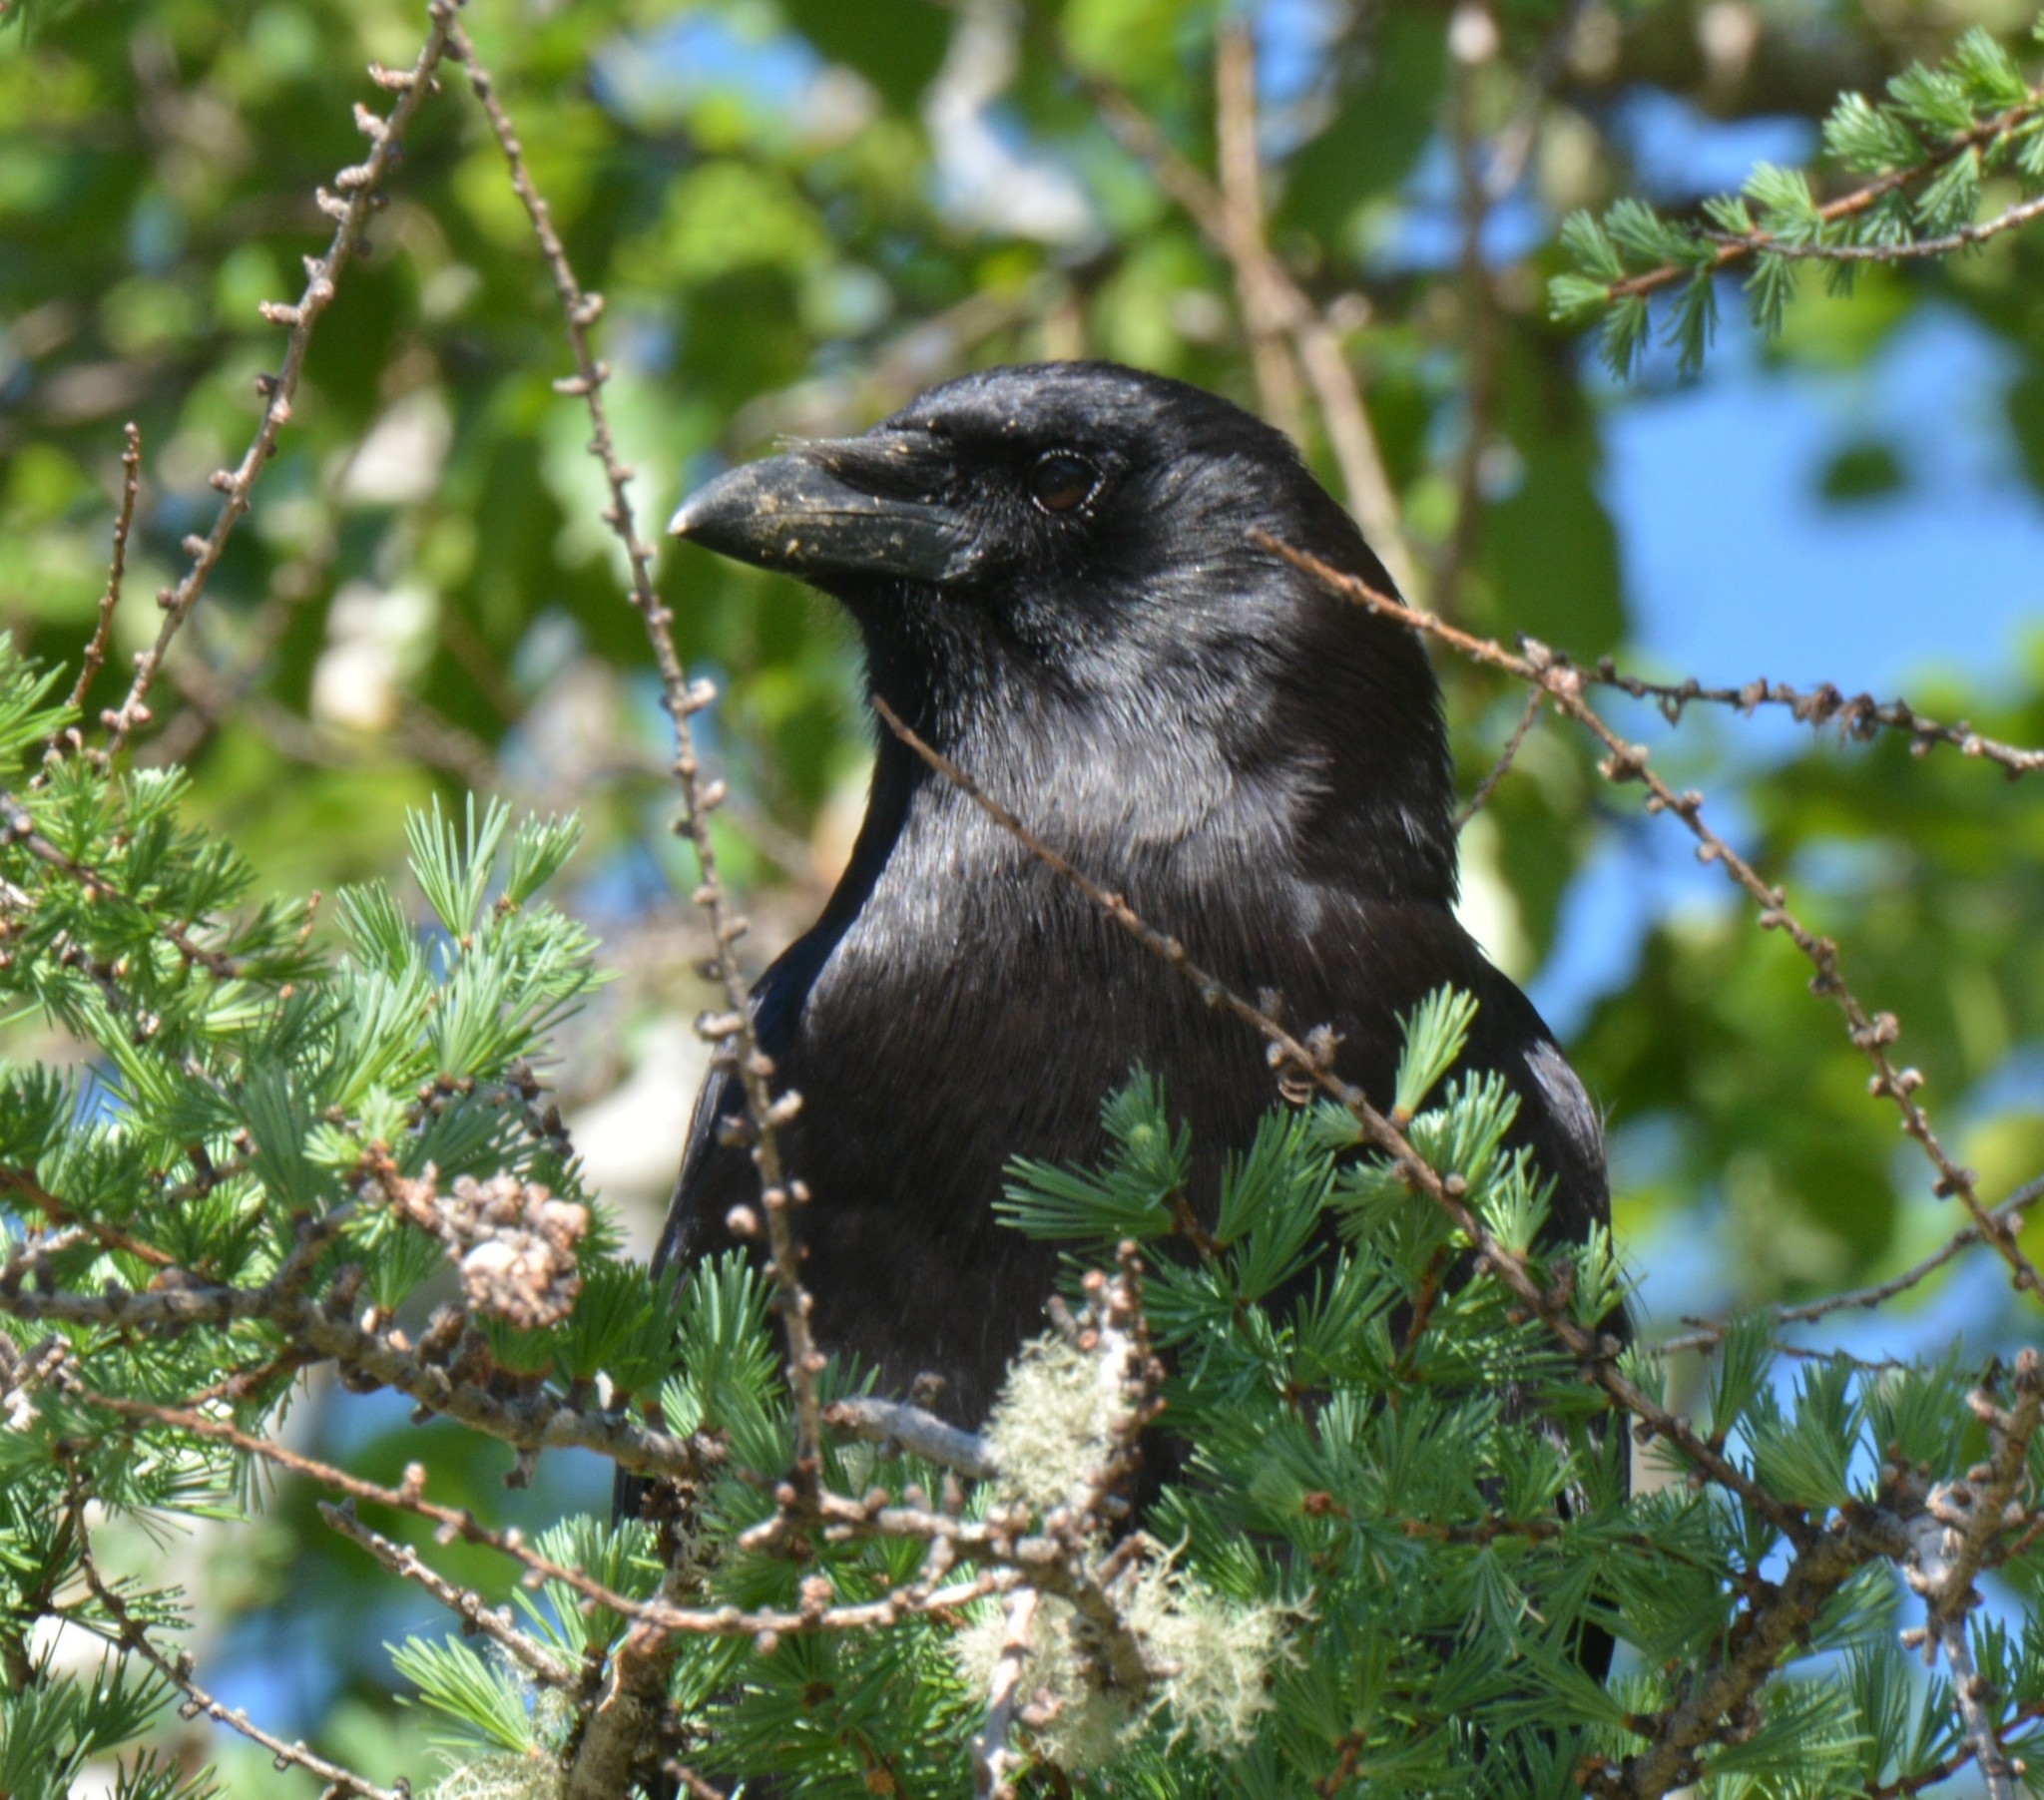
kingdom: Animalia
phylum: Chordata
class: Aves
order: Passeriformes
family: Corvidae
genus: Corvus
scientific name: Corvus brachyrhynchos
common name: American crow
